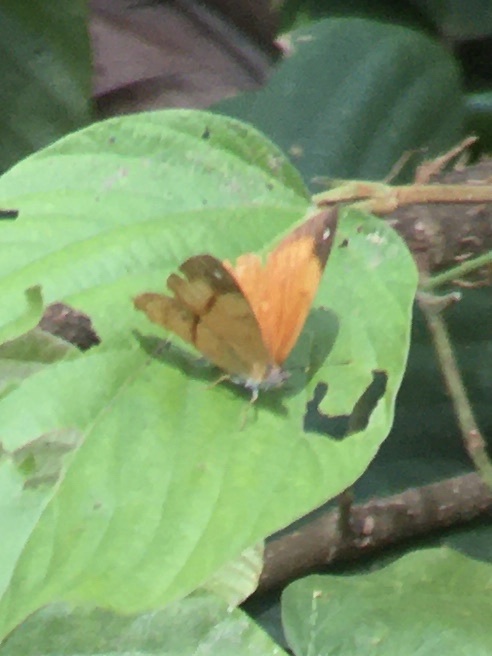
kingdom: Animalia
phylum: Arthropoda
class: Insecta
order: Lepidoptera
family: Nymphalidae
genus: Nica
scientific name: Nica flavilla
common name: Mandarin nica
